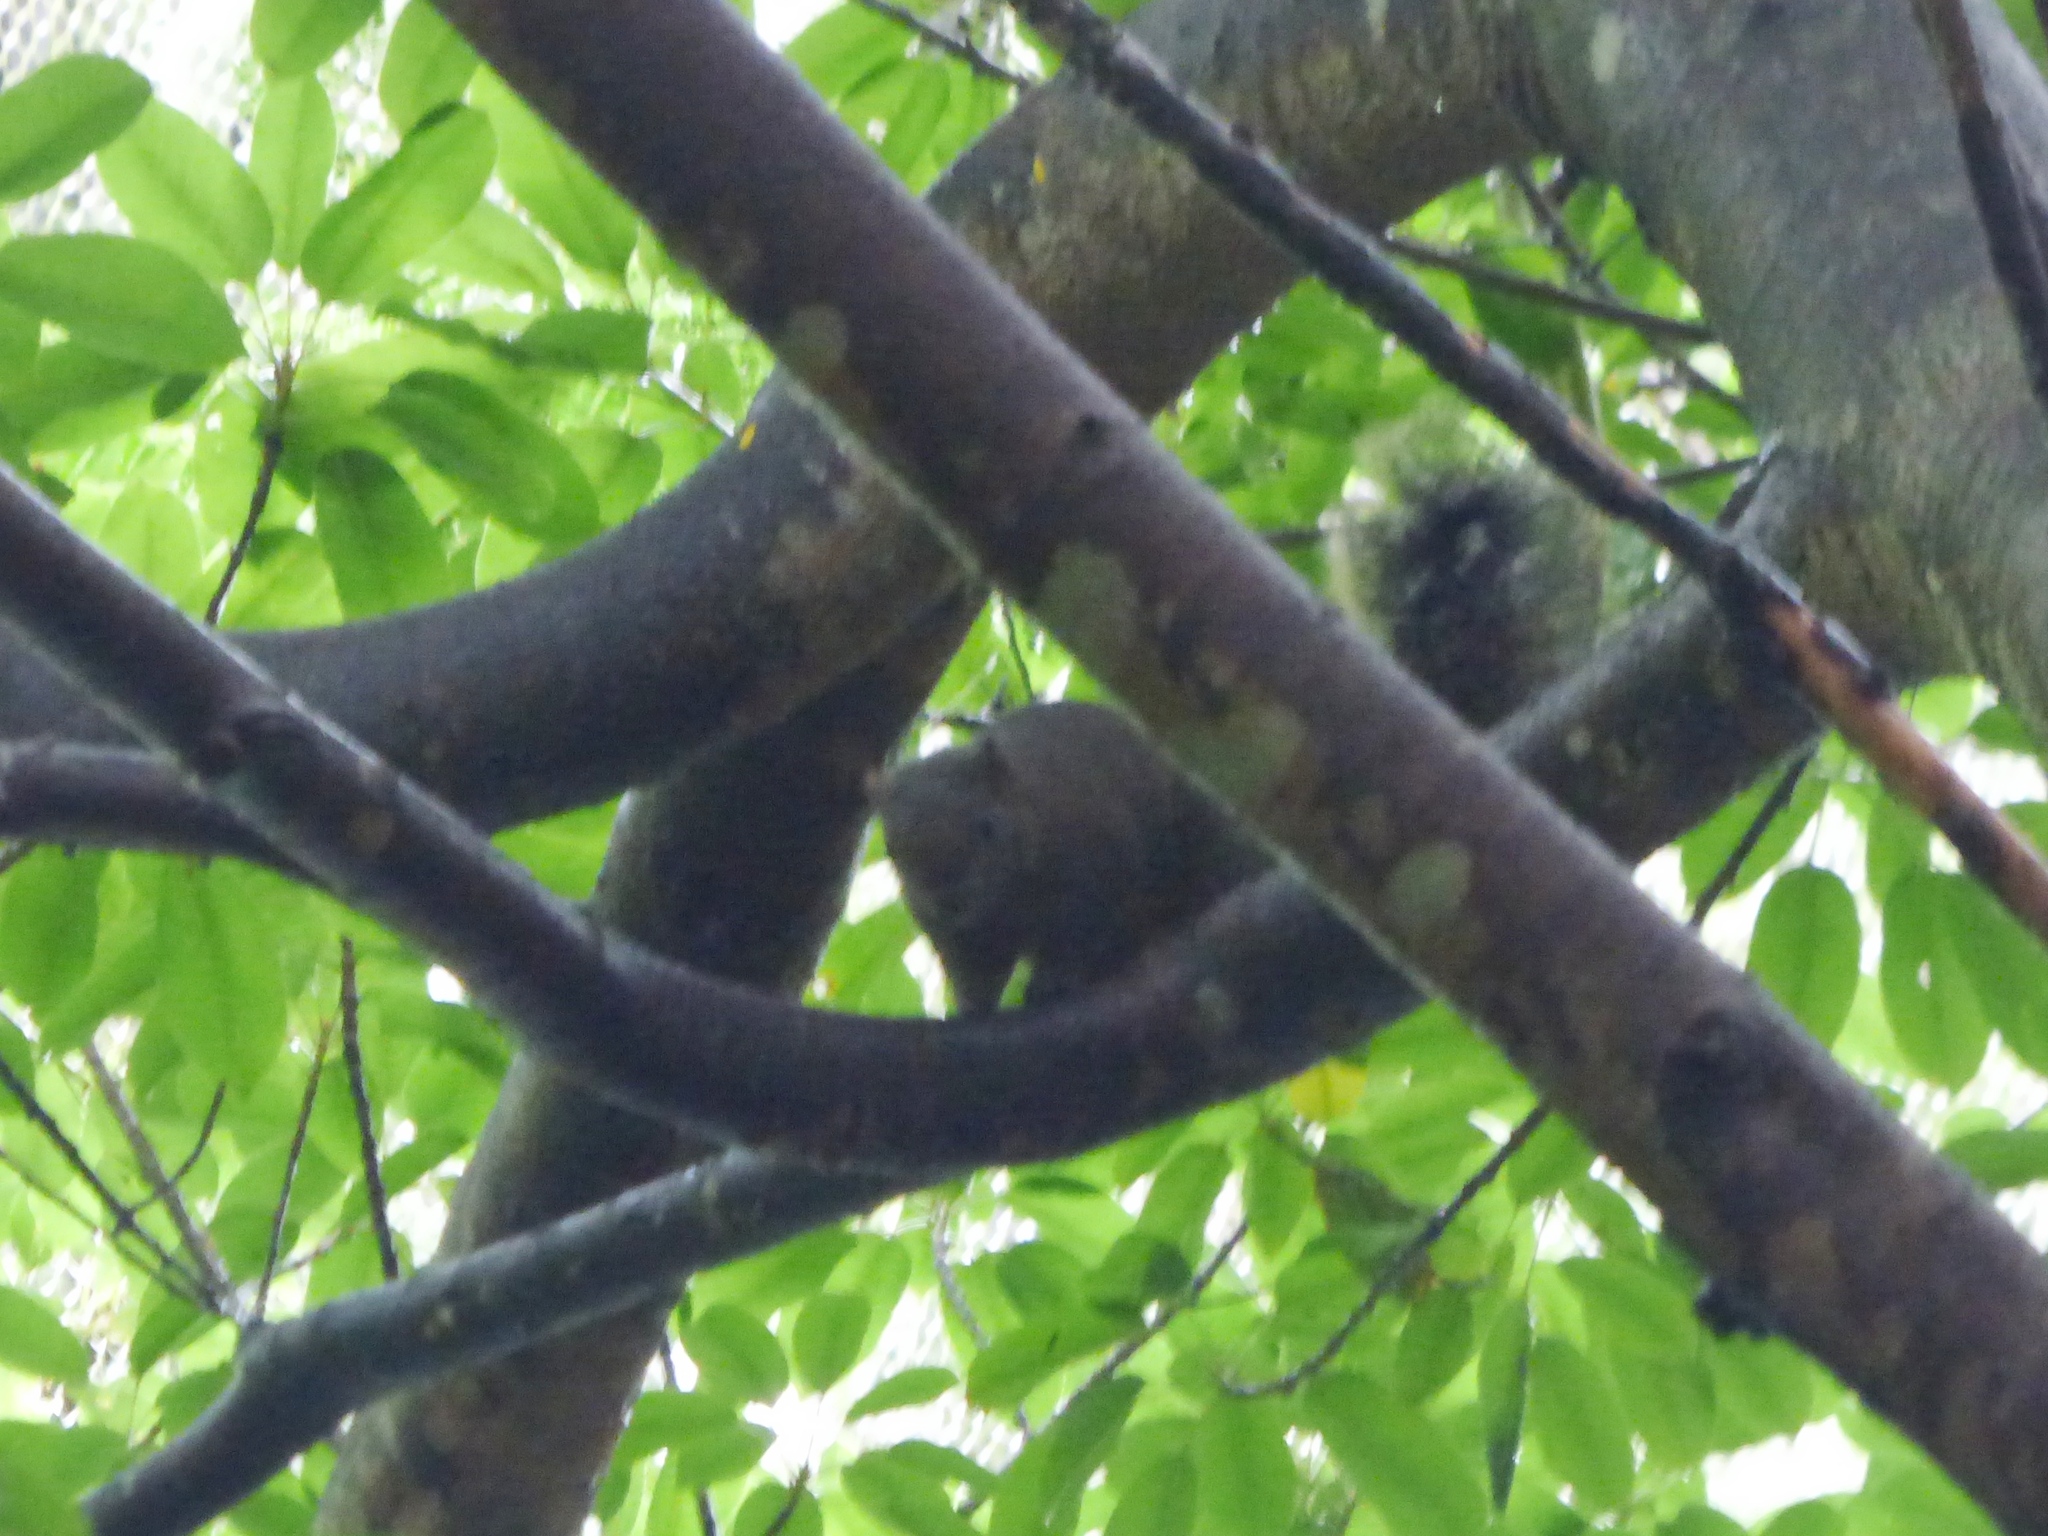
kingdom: Animalia
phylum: Chordata
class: Mammalia
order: Rodentia
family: Sciuridae
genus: Callosciurus
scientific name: Callosciurus erythraeus
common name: Pallas's squirrel
